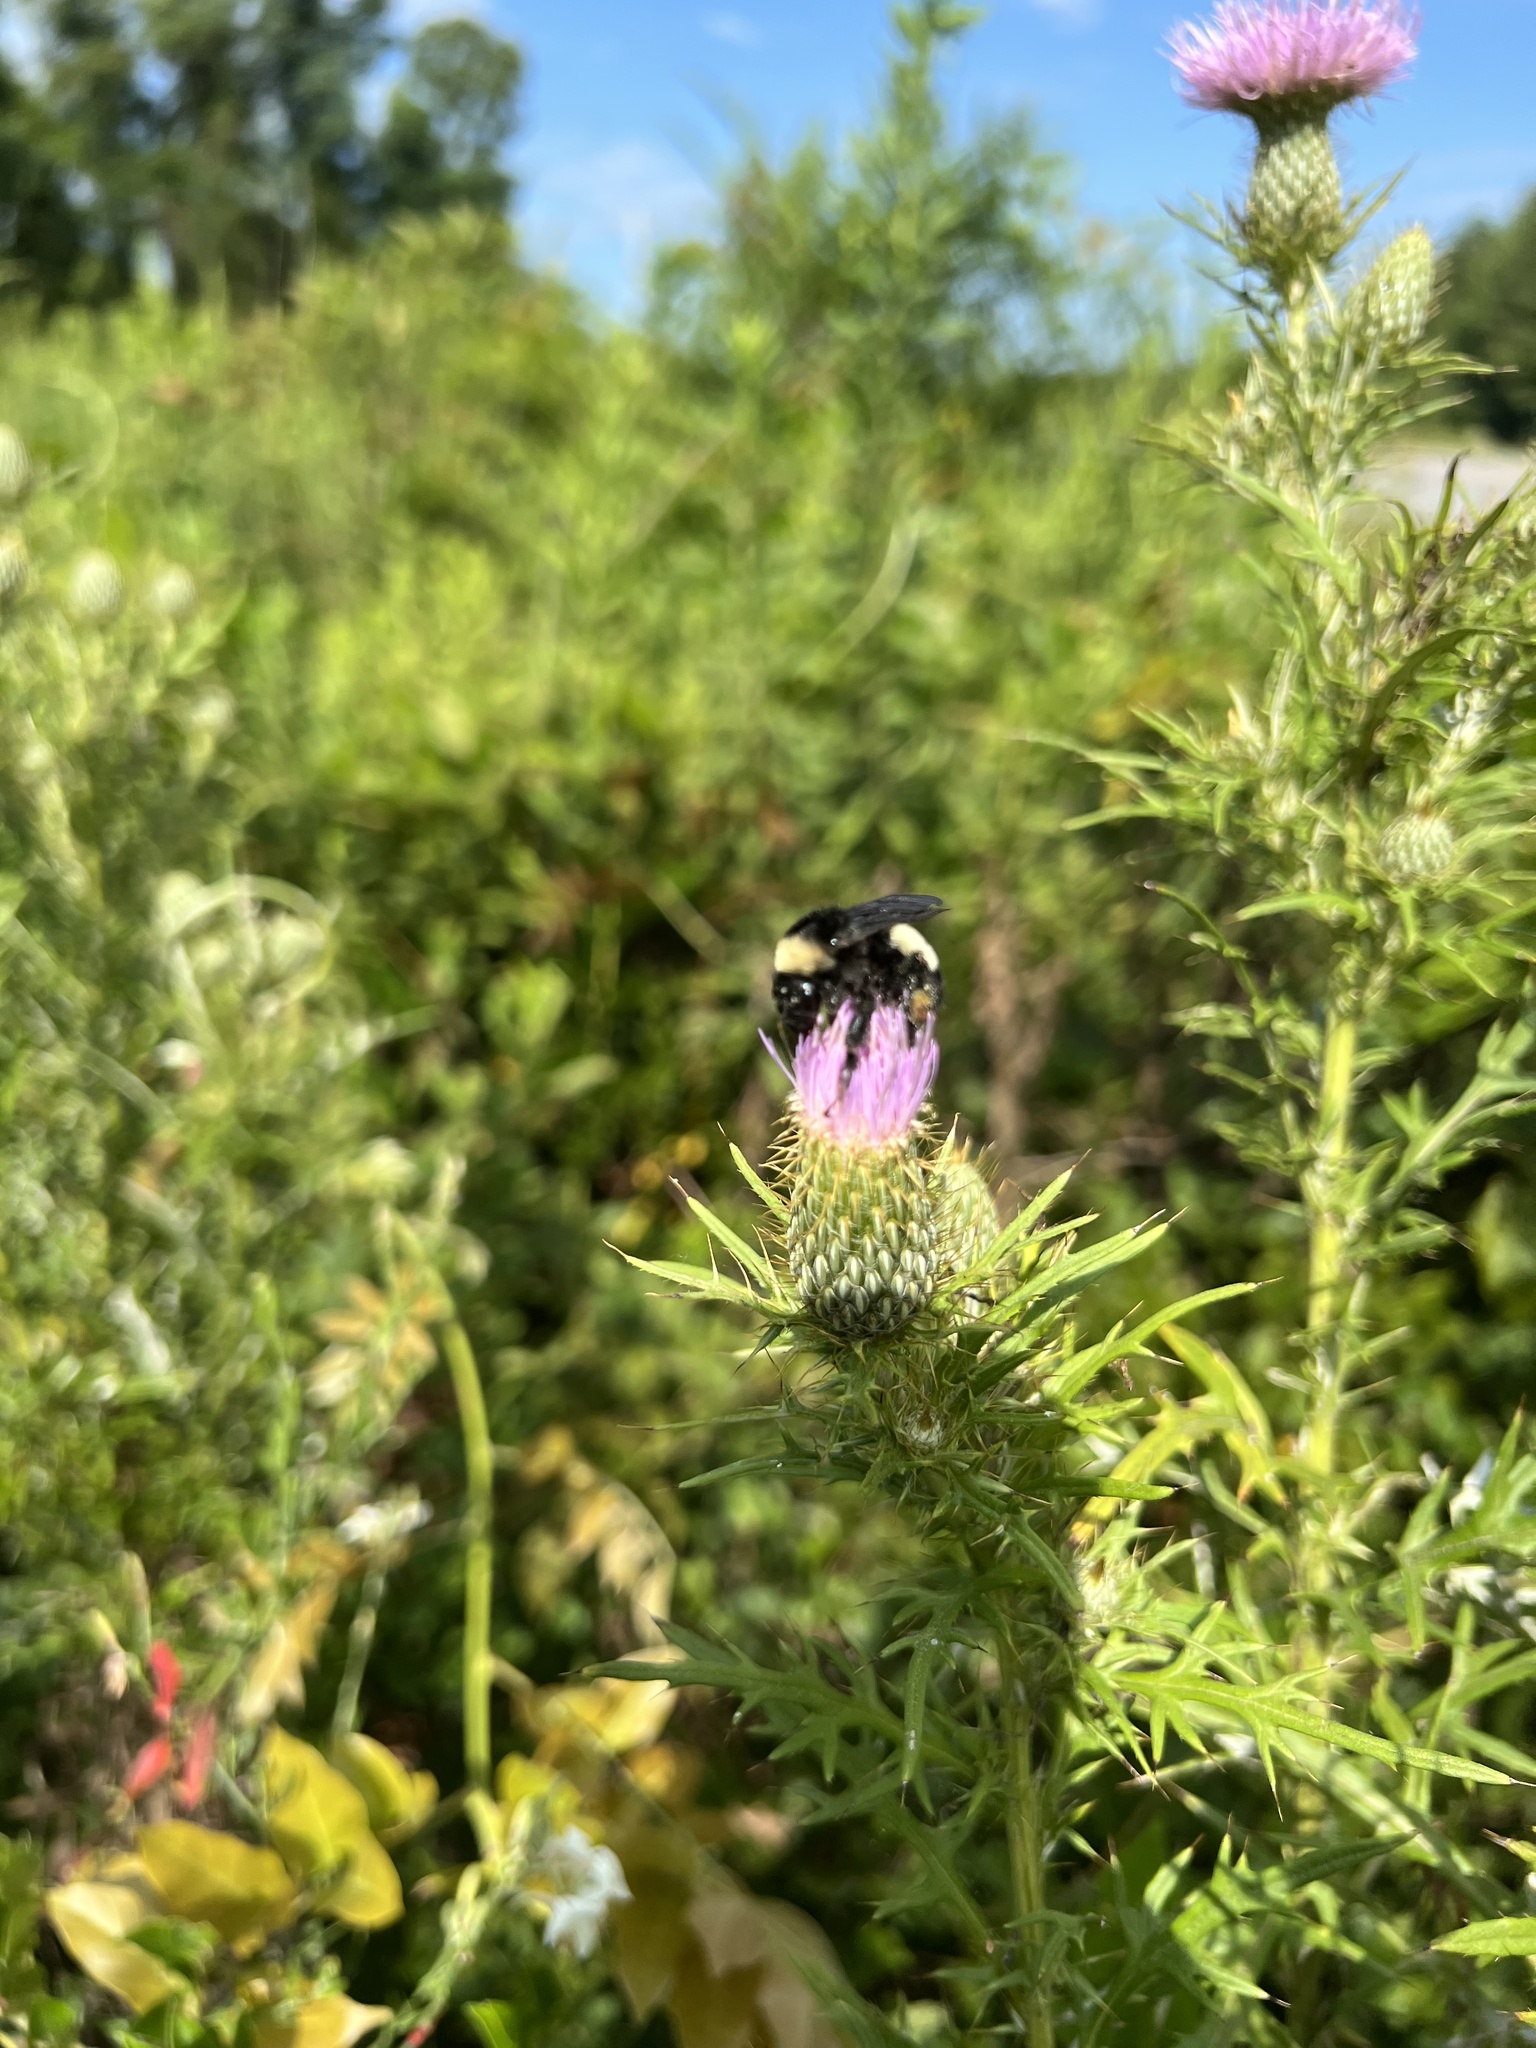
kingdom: Animalia
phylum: Arthropoda
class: Insecta
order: Hymenoptera
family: Apidae
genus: Bombus
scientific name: Bombus pensylvanicus
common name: Bumble bee
